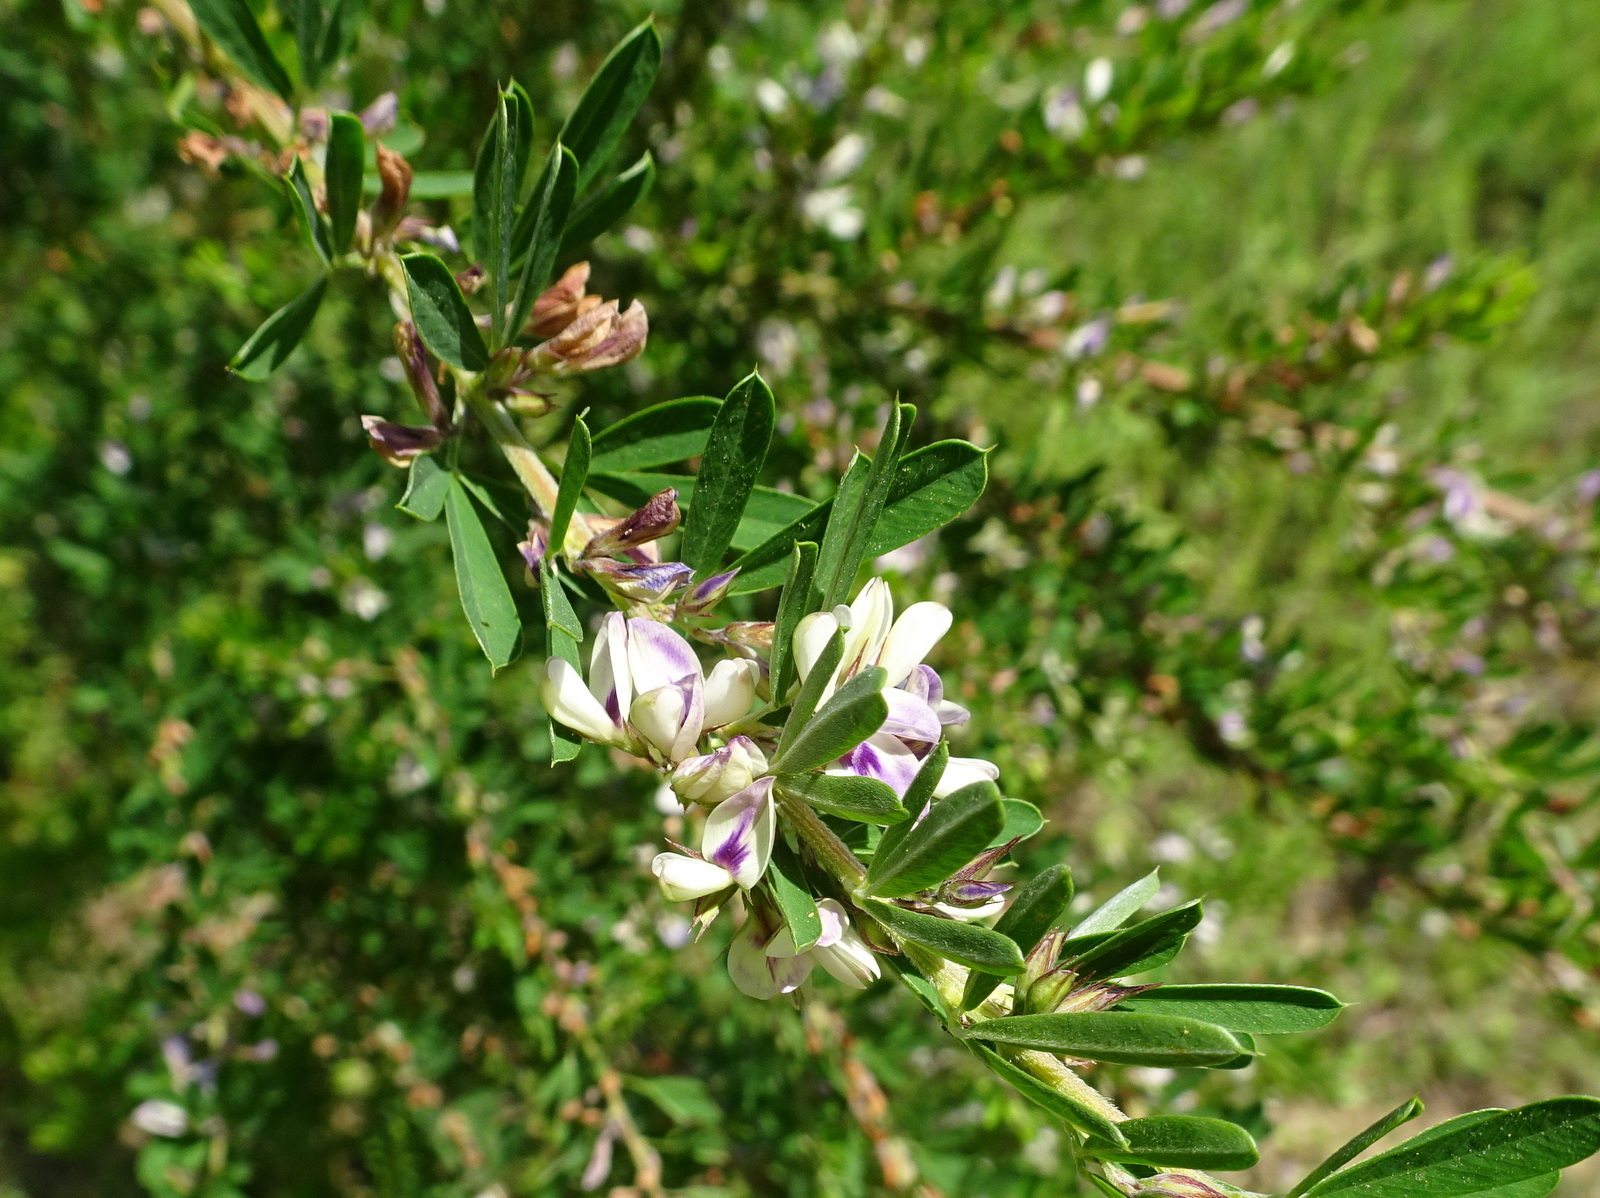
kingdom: Plantae
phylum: Tracheophyta
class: Magnoliopsida
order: Fabales
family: Fabaceae
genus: Lespedeza
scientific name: Lespedeza cuneata
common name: Chinese bush-clover
